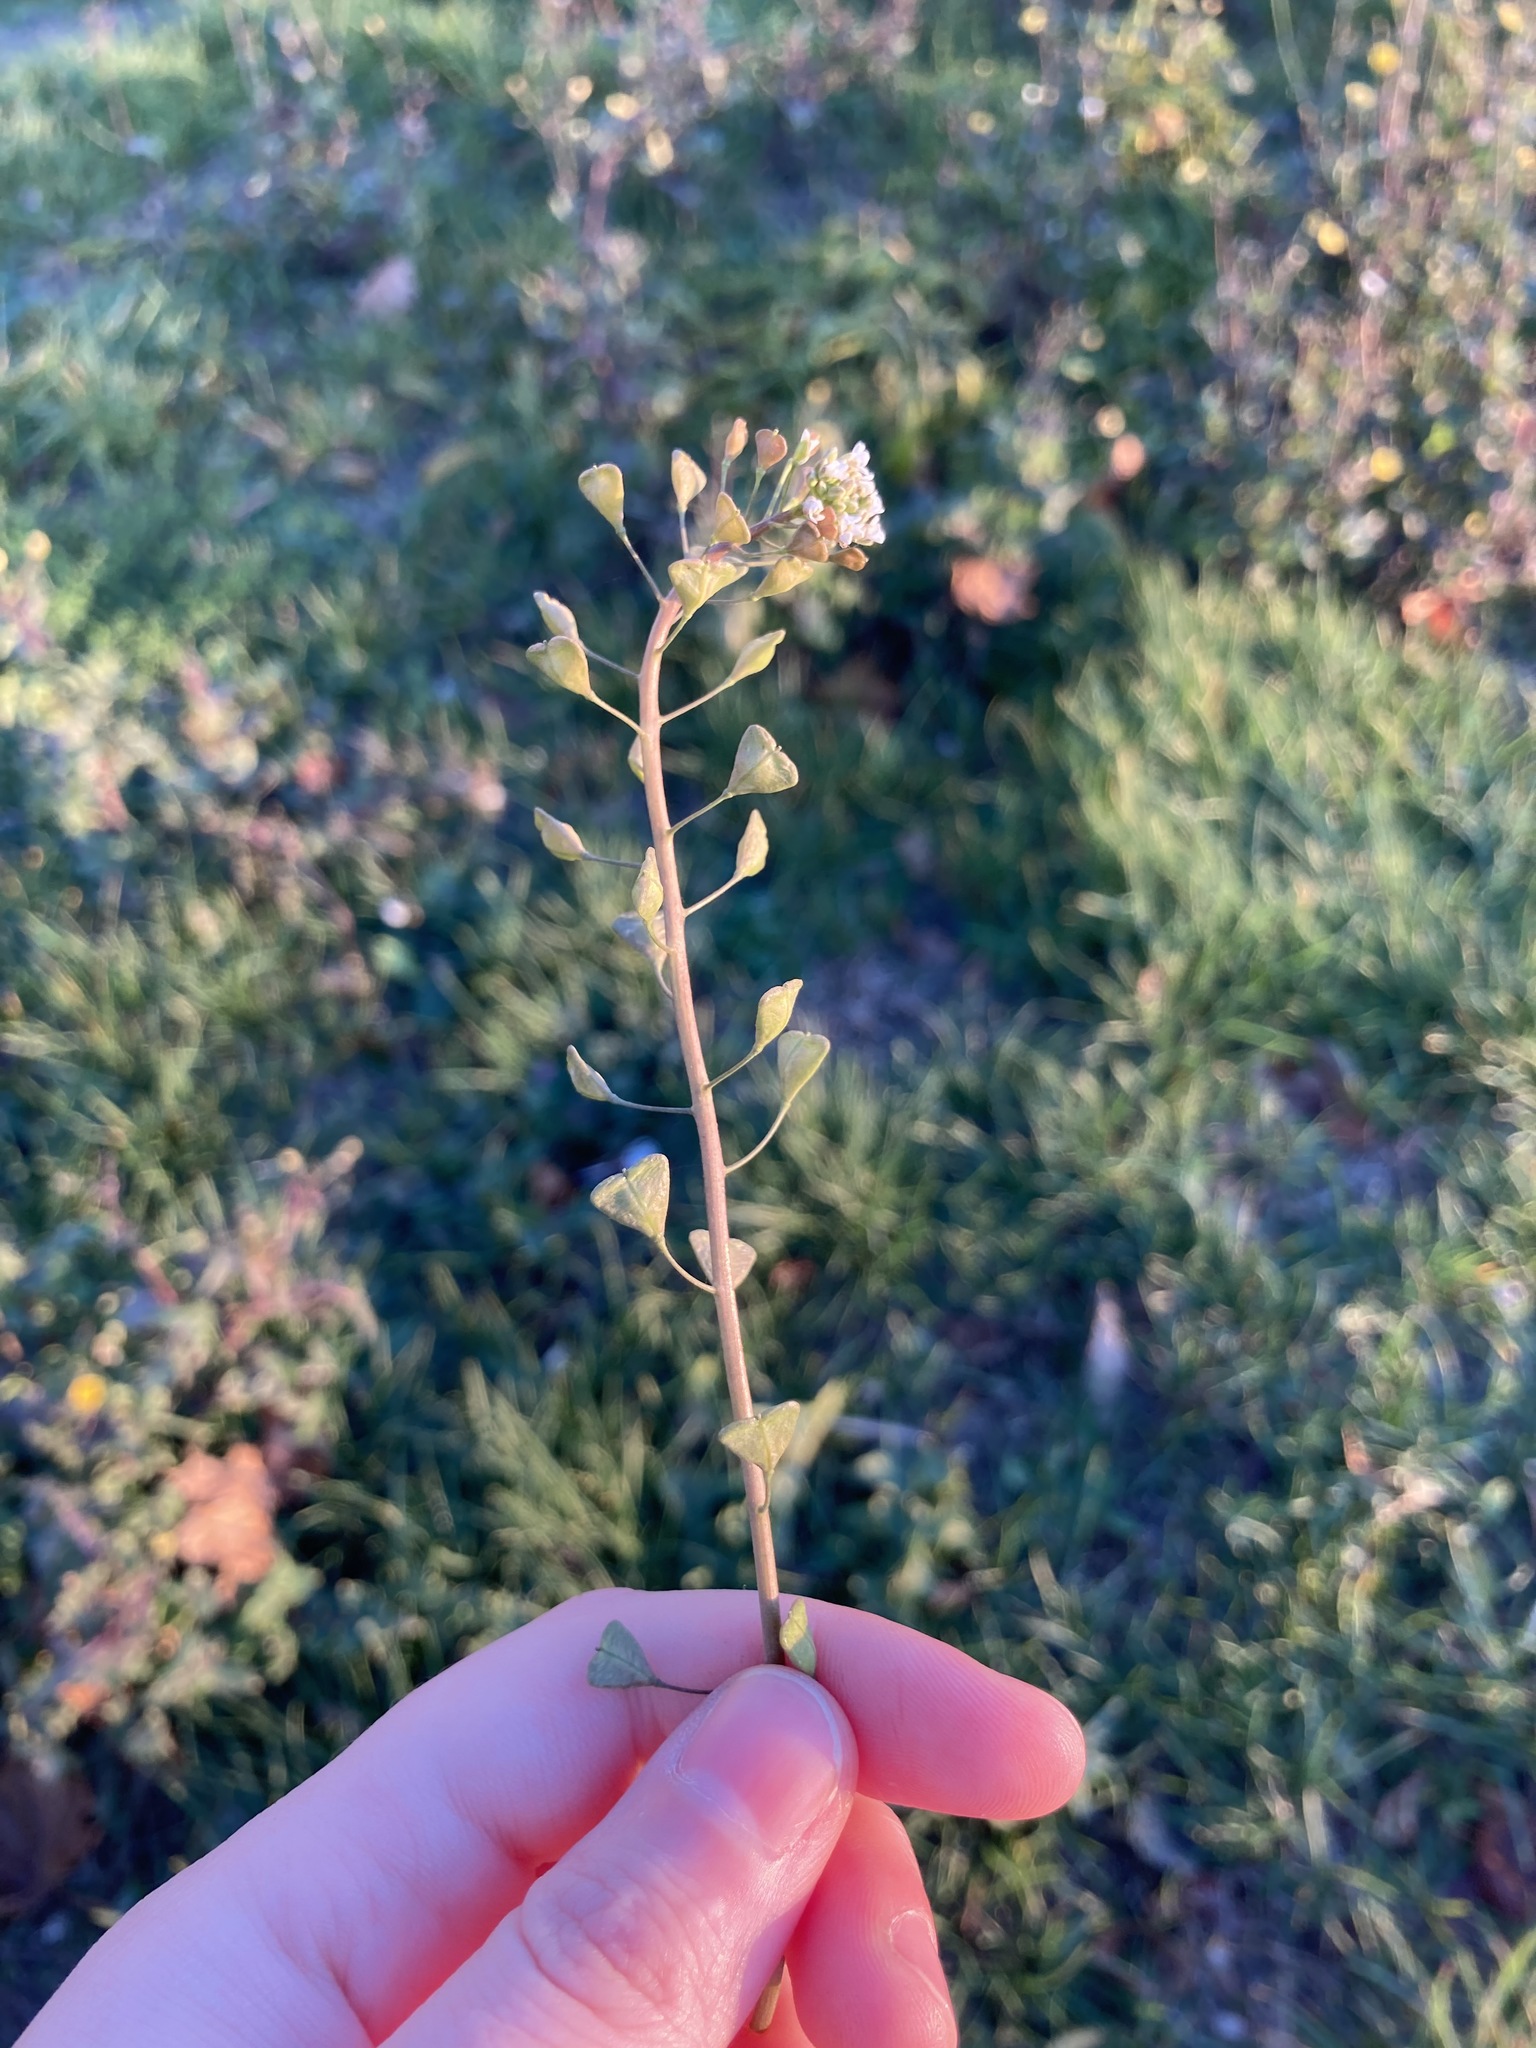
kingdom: Plantae
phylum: Tracheophyta
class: Magnoliopsida
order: Brassicales
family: Brassicaceae
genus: Capsella
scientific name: Capsella bursa-pastoris
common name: Shepherd's purse
